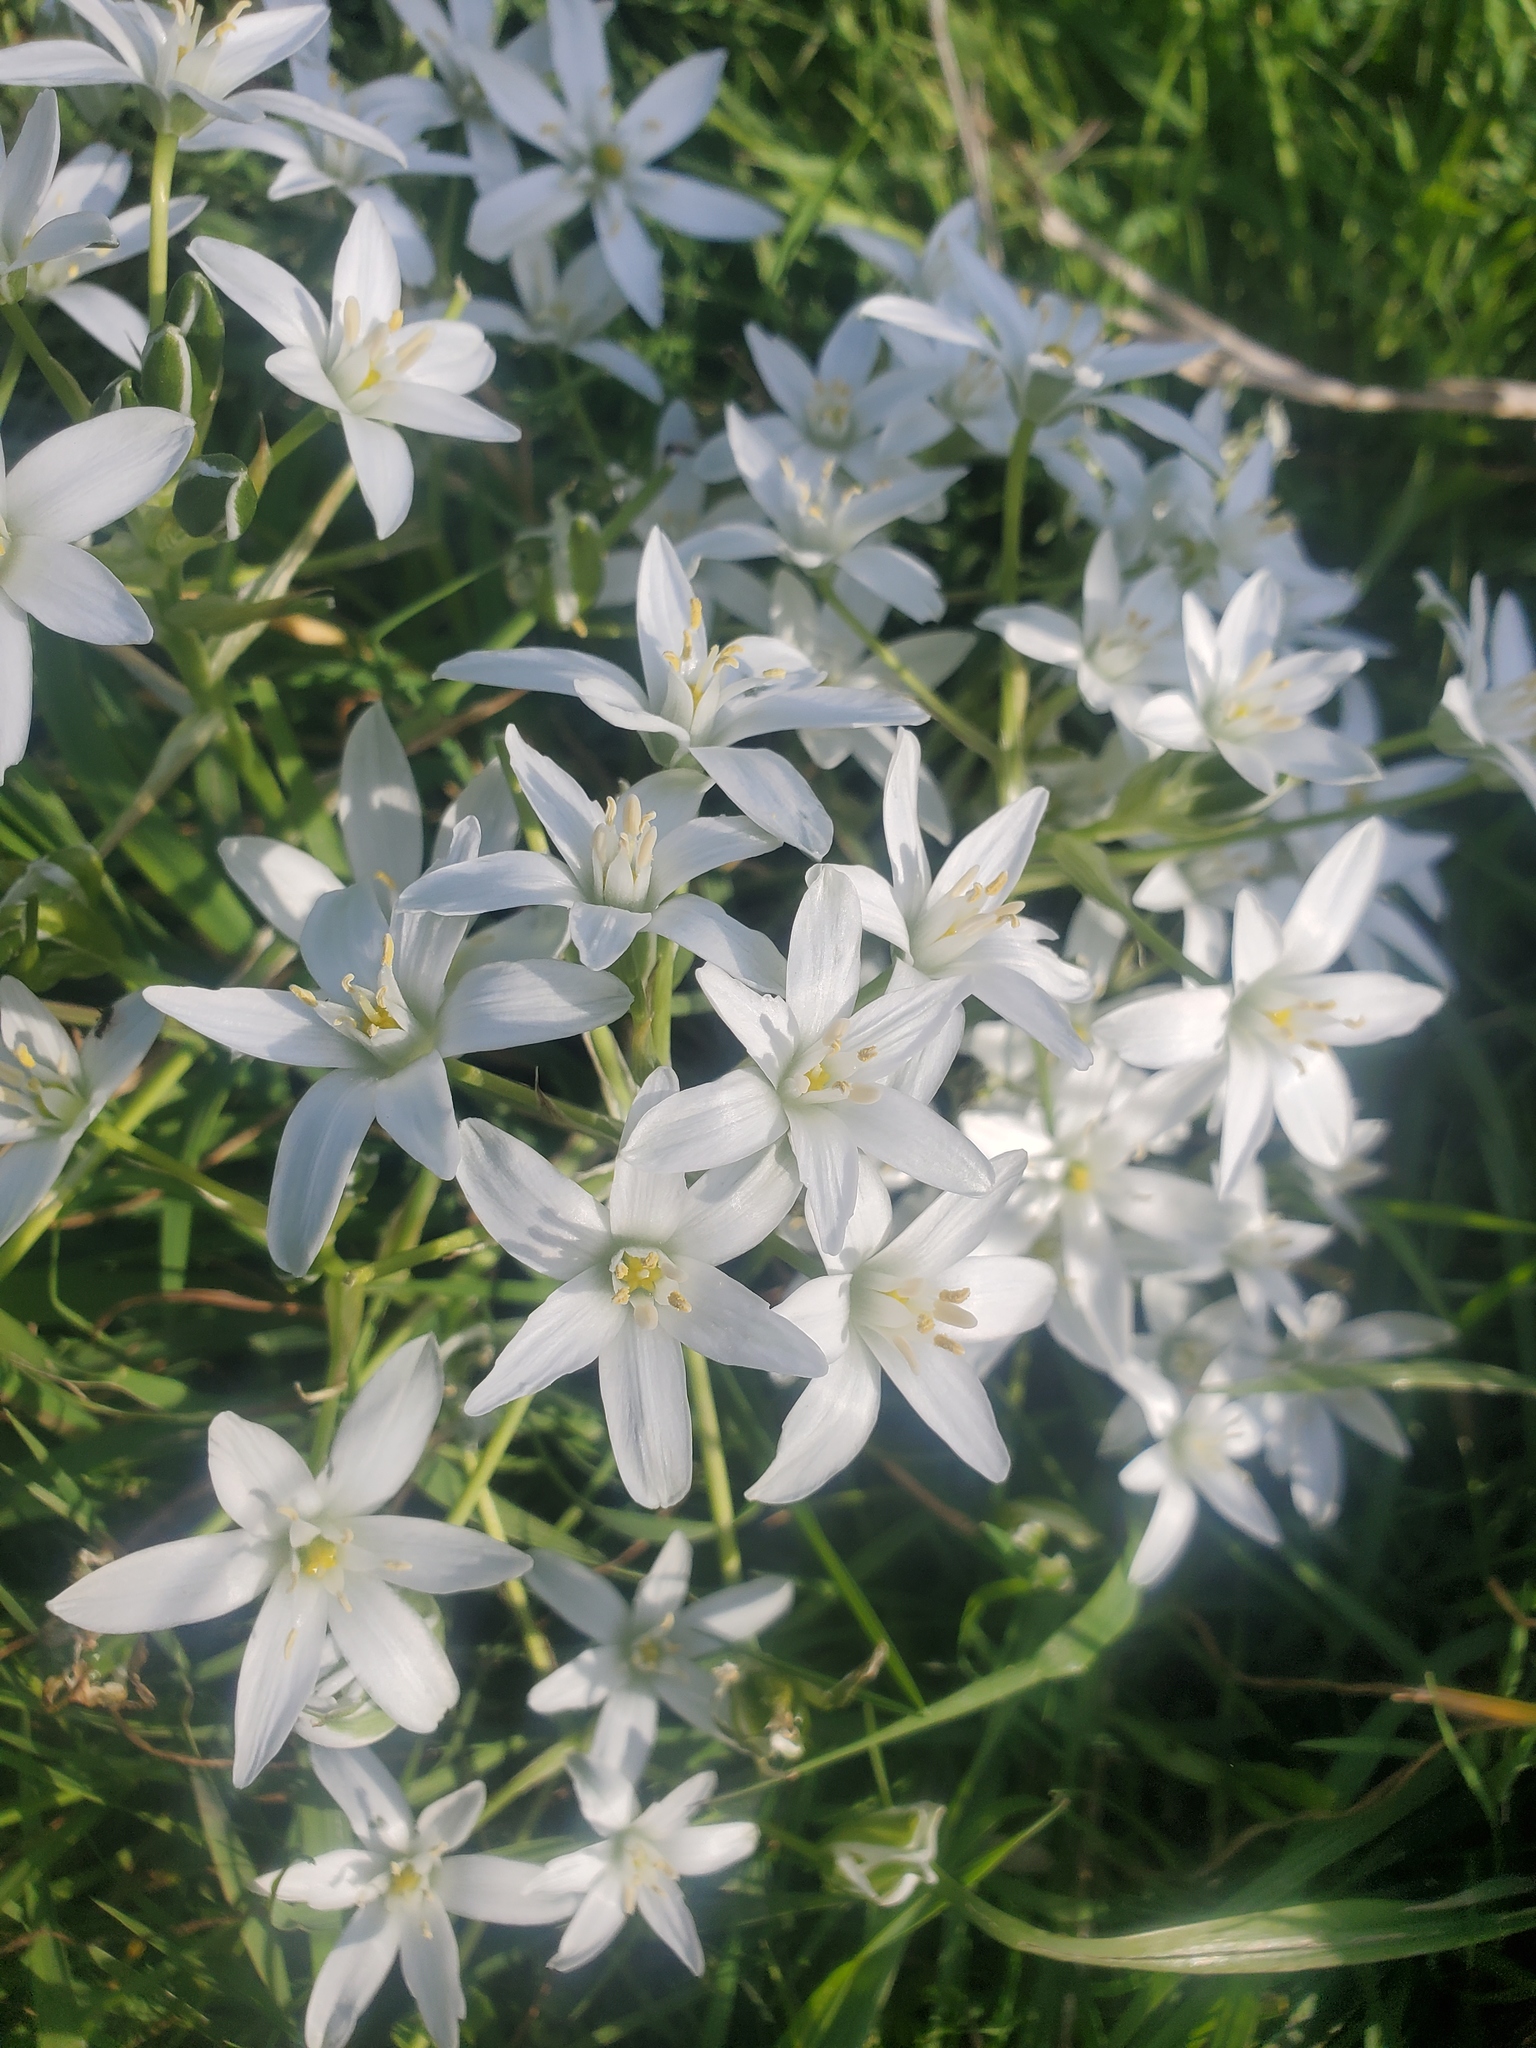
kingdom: Plantae
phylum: Tracheophyta
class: Liliopsida
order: Asparagales
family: Asparagaceae
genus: Ornithogalum
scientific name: Ornithogalum umbellatum
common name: Garden star-of-bethlehem
